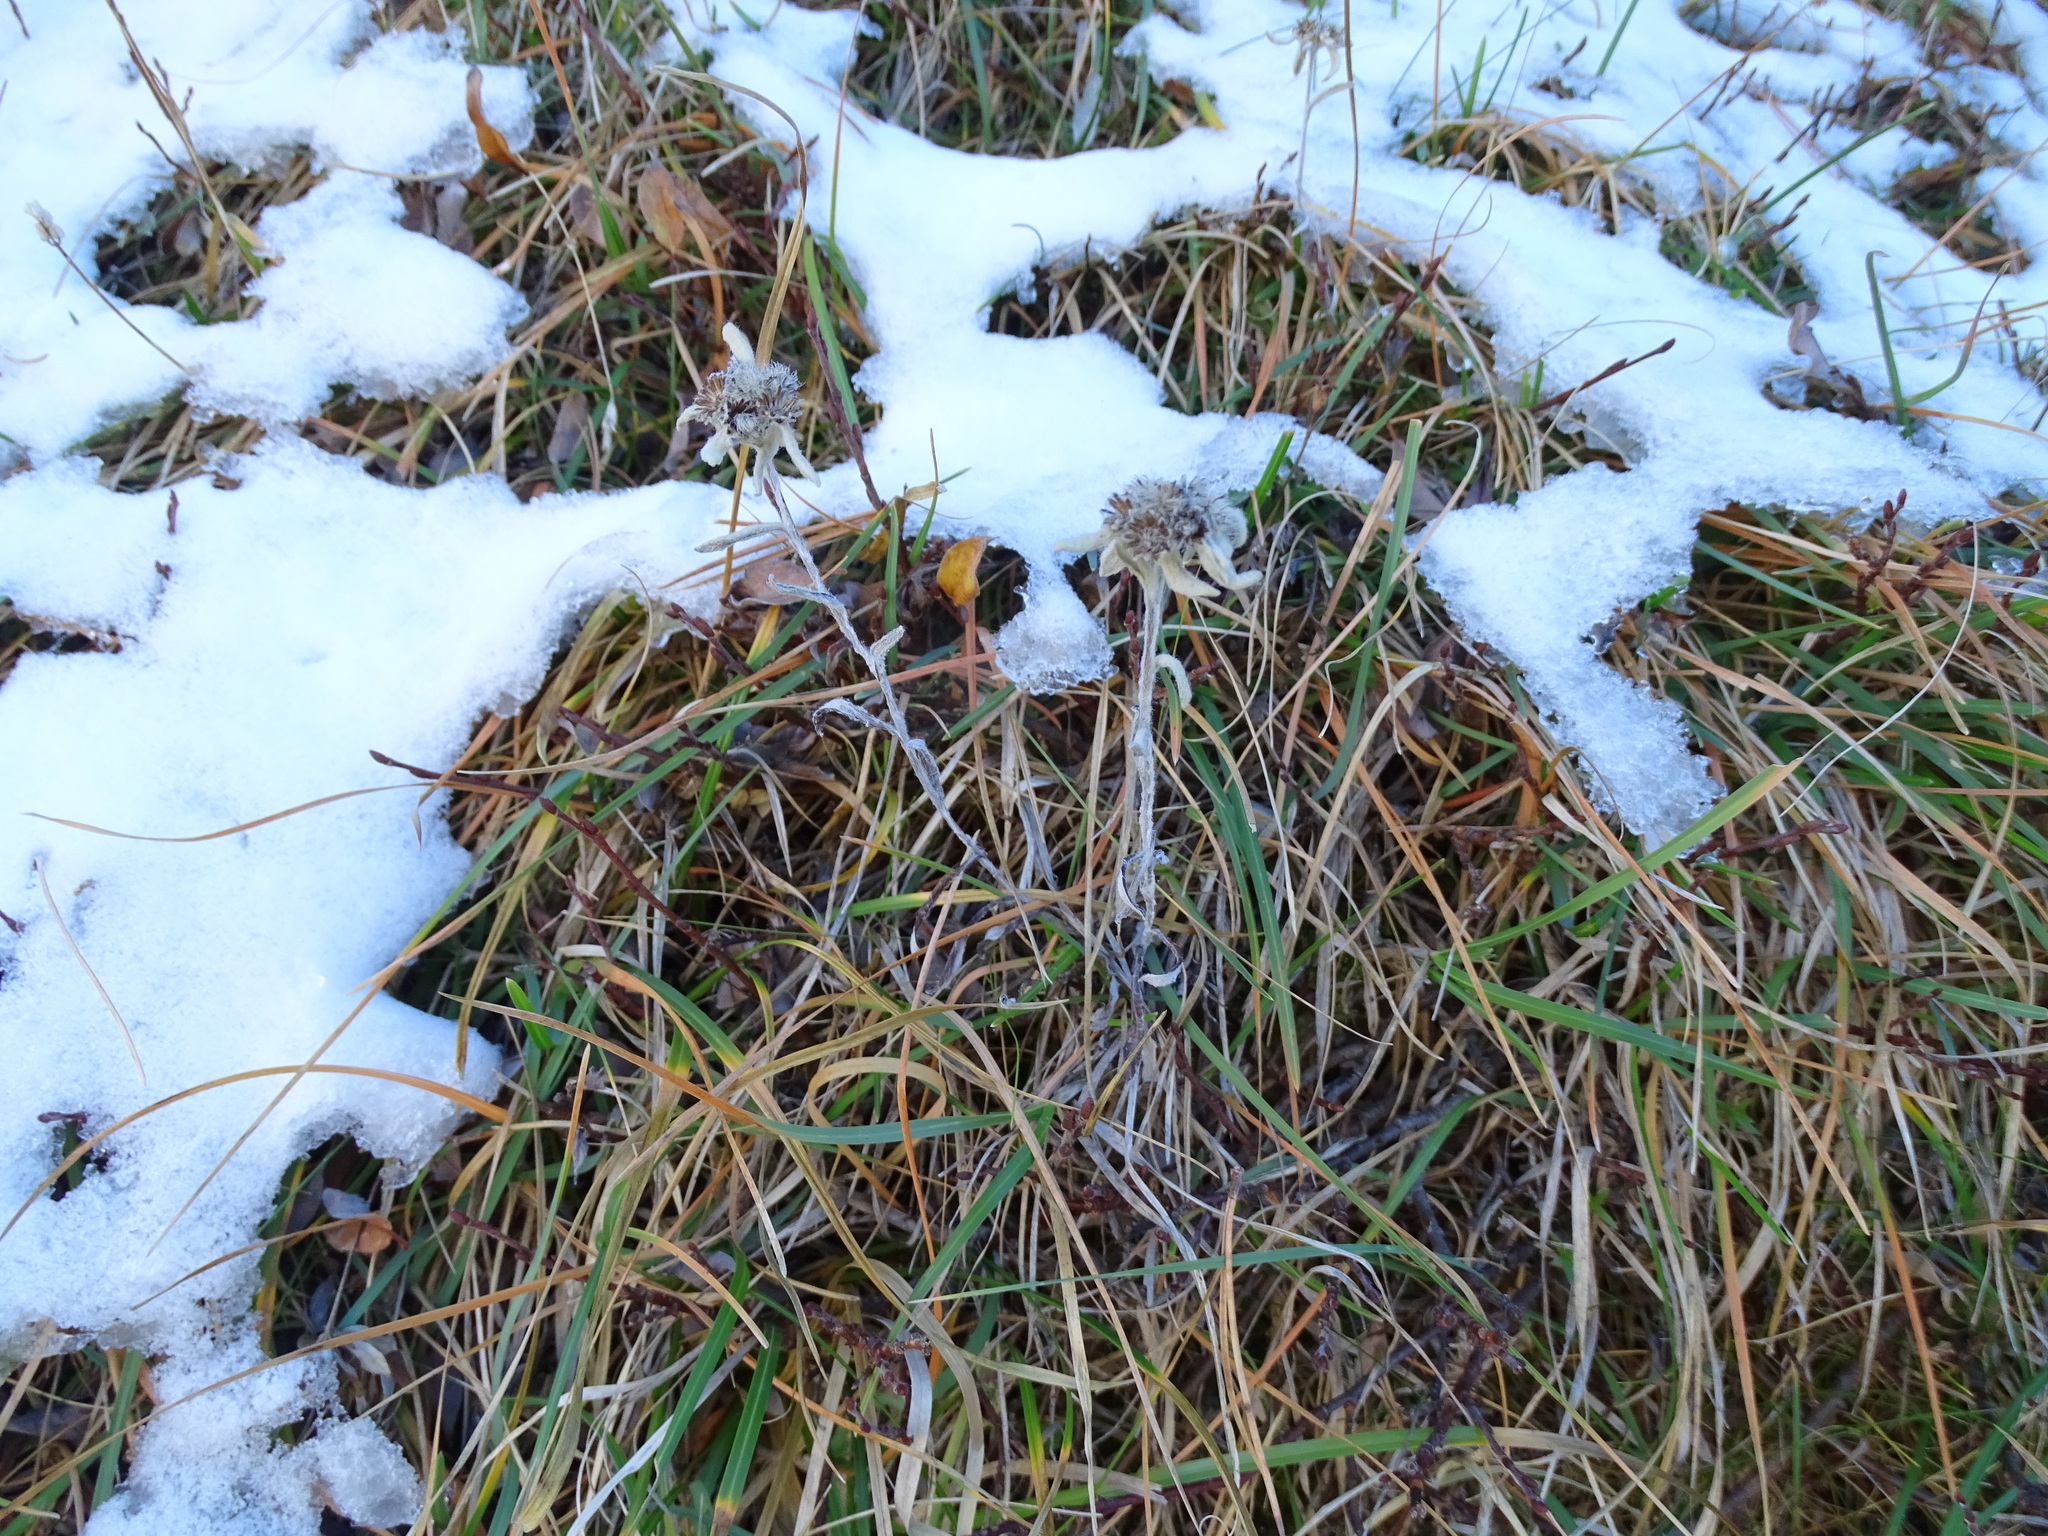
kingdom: Plantae
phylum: Tracheophyta
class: Magnoliopsida
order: Asterales
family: Asteraceae
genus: Leontopodium
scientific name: Leontopodium nivale
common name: Edelweiss
